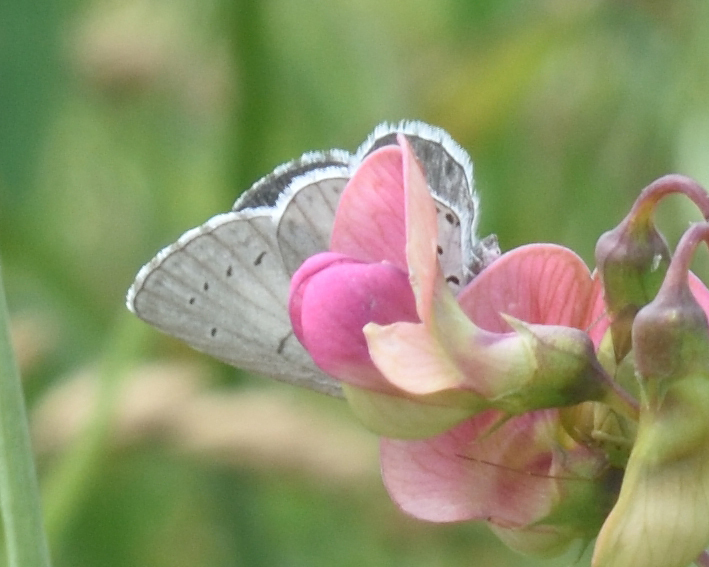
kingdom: Animalia
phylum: Arthropoda
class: Insecta
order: Lepidoptera
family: Lycaenidae
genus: Celastrina
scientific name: Celastrina argiolus
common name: Holly blue
